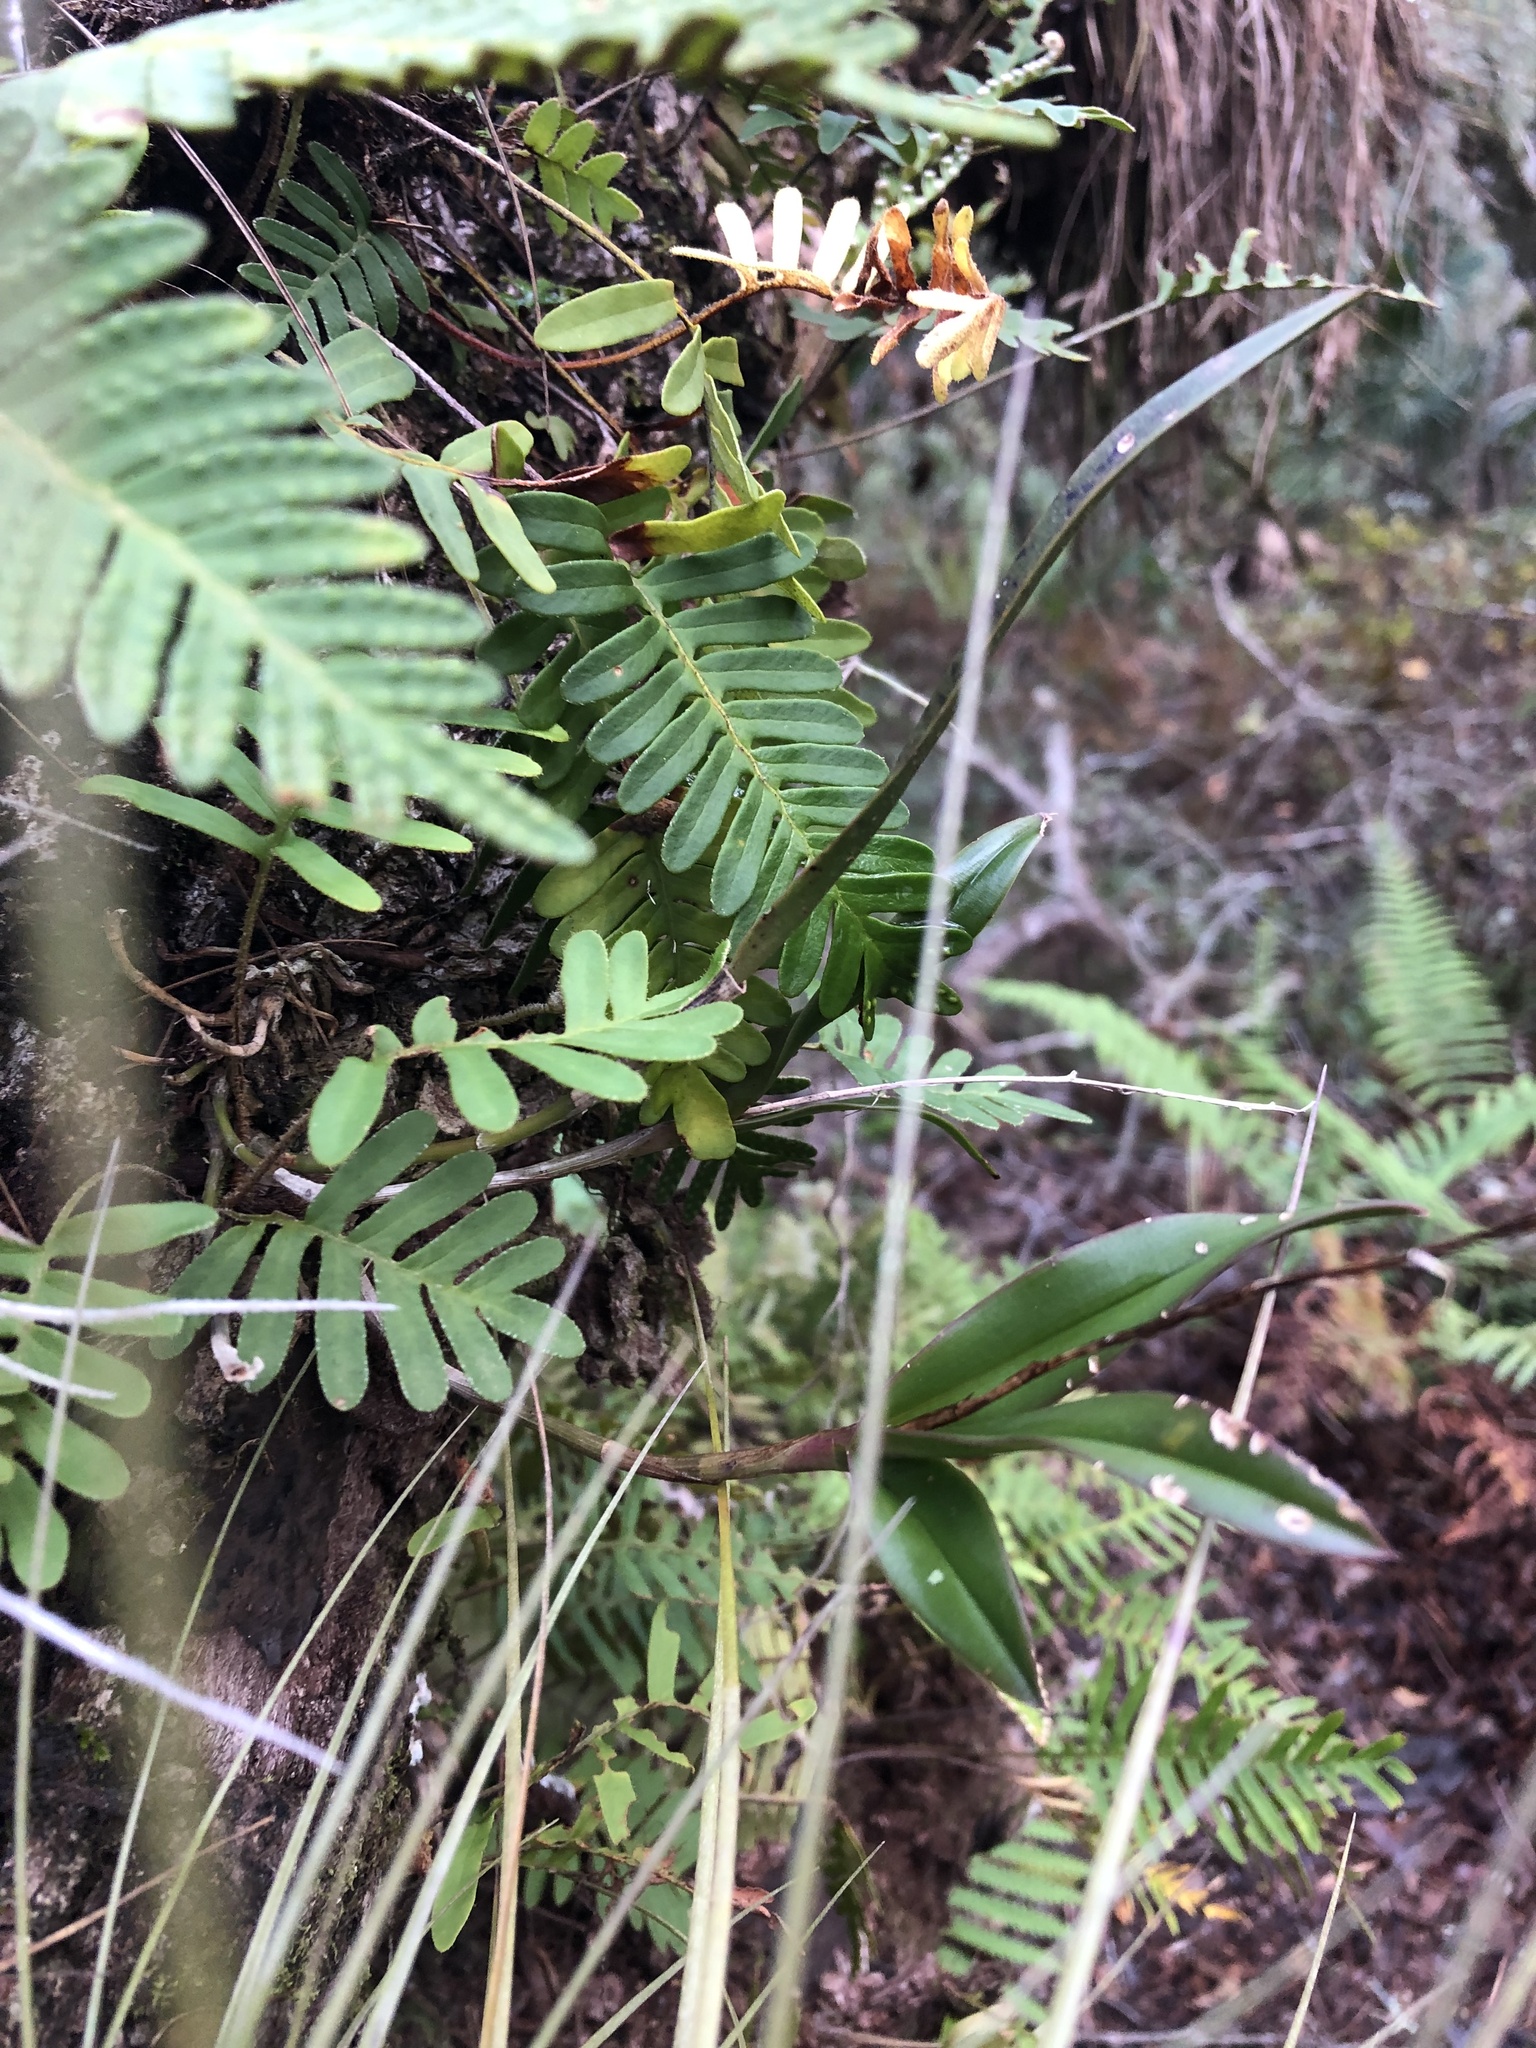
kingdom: Plantae
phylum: Tracheophyta
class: Liliopsida
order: Asparagales
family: Orchidaceae
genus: Epidendrum
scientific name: Epidendrum conopseum
